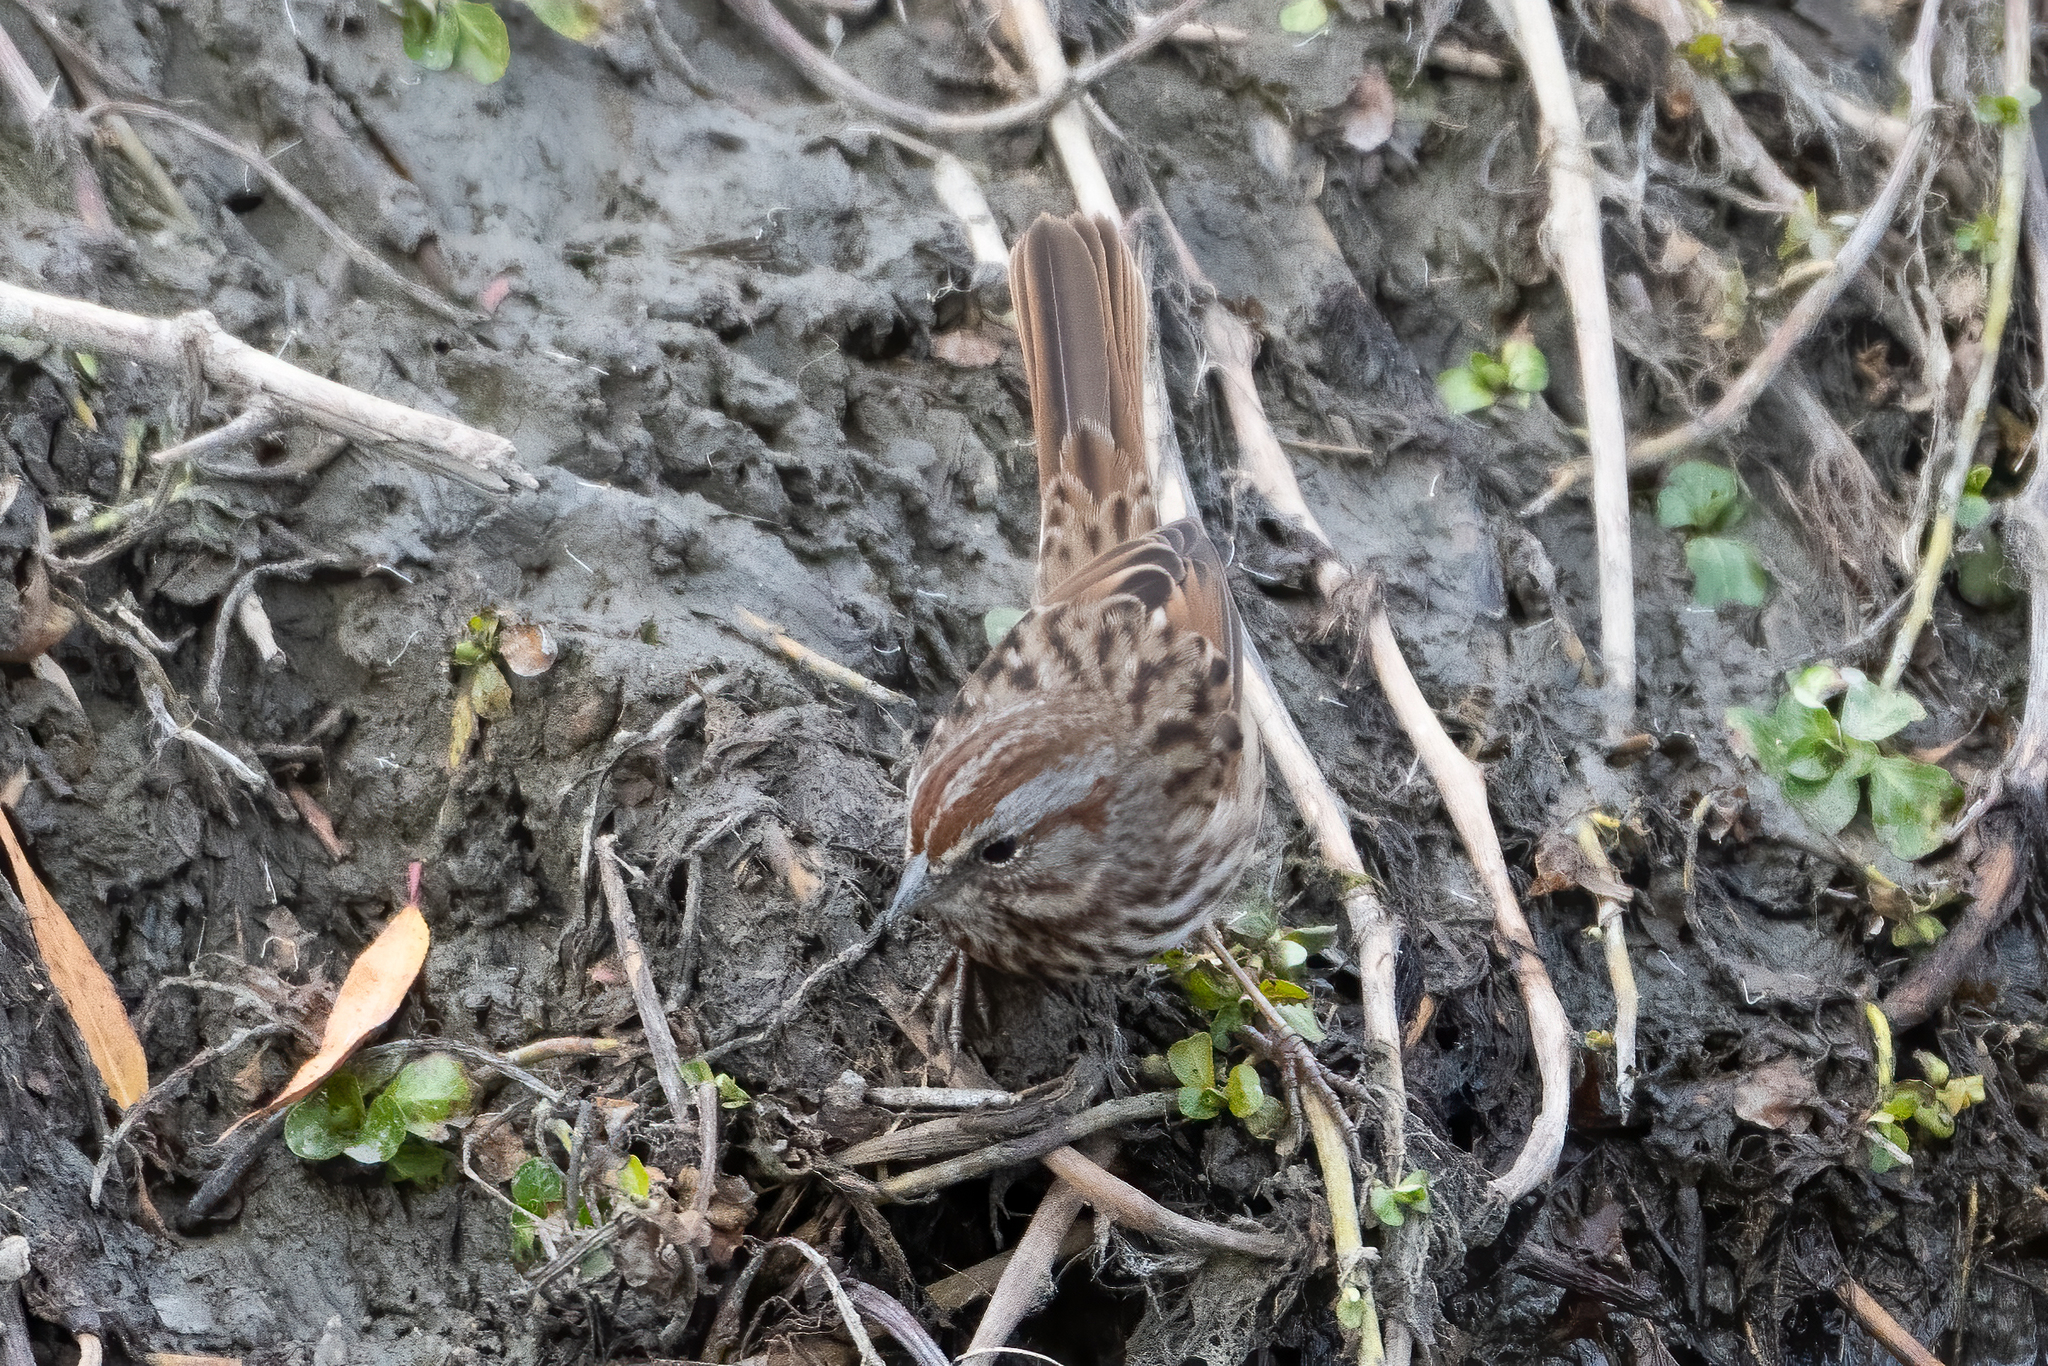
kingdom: Animalia
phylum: Chordata
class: Aves
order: Passeriformes
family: Passerellidae
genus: Melospiza
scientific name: Melospiza melodia
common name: Song sparrow
